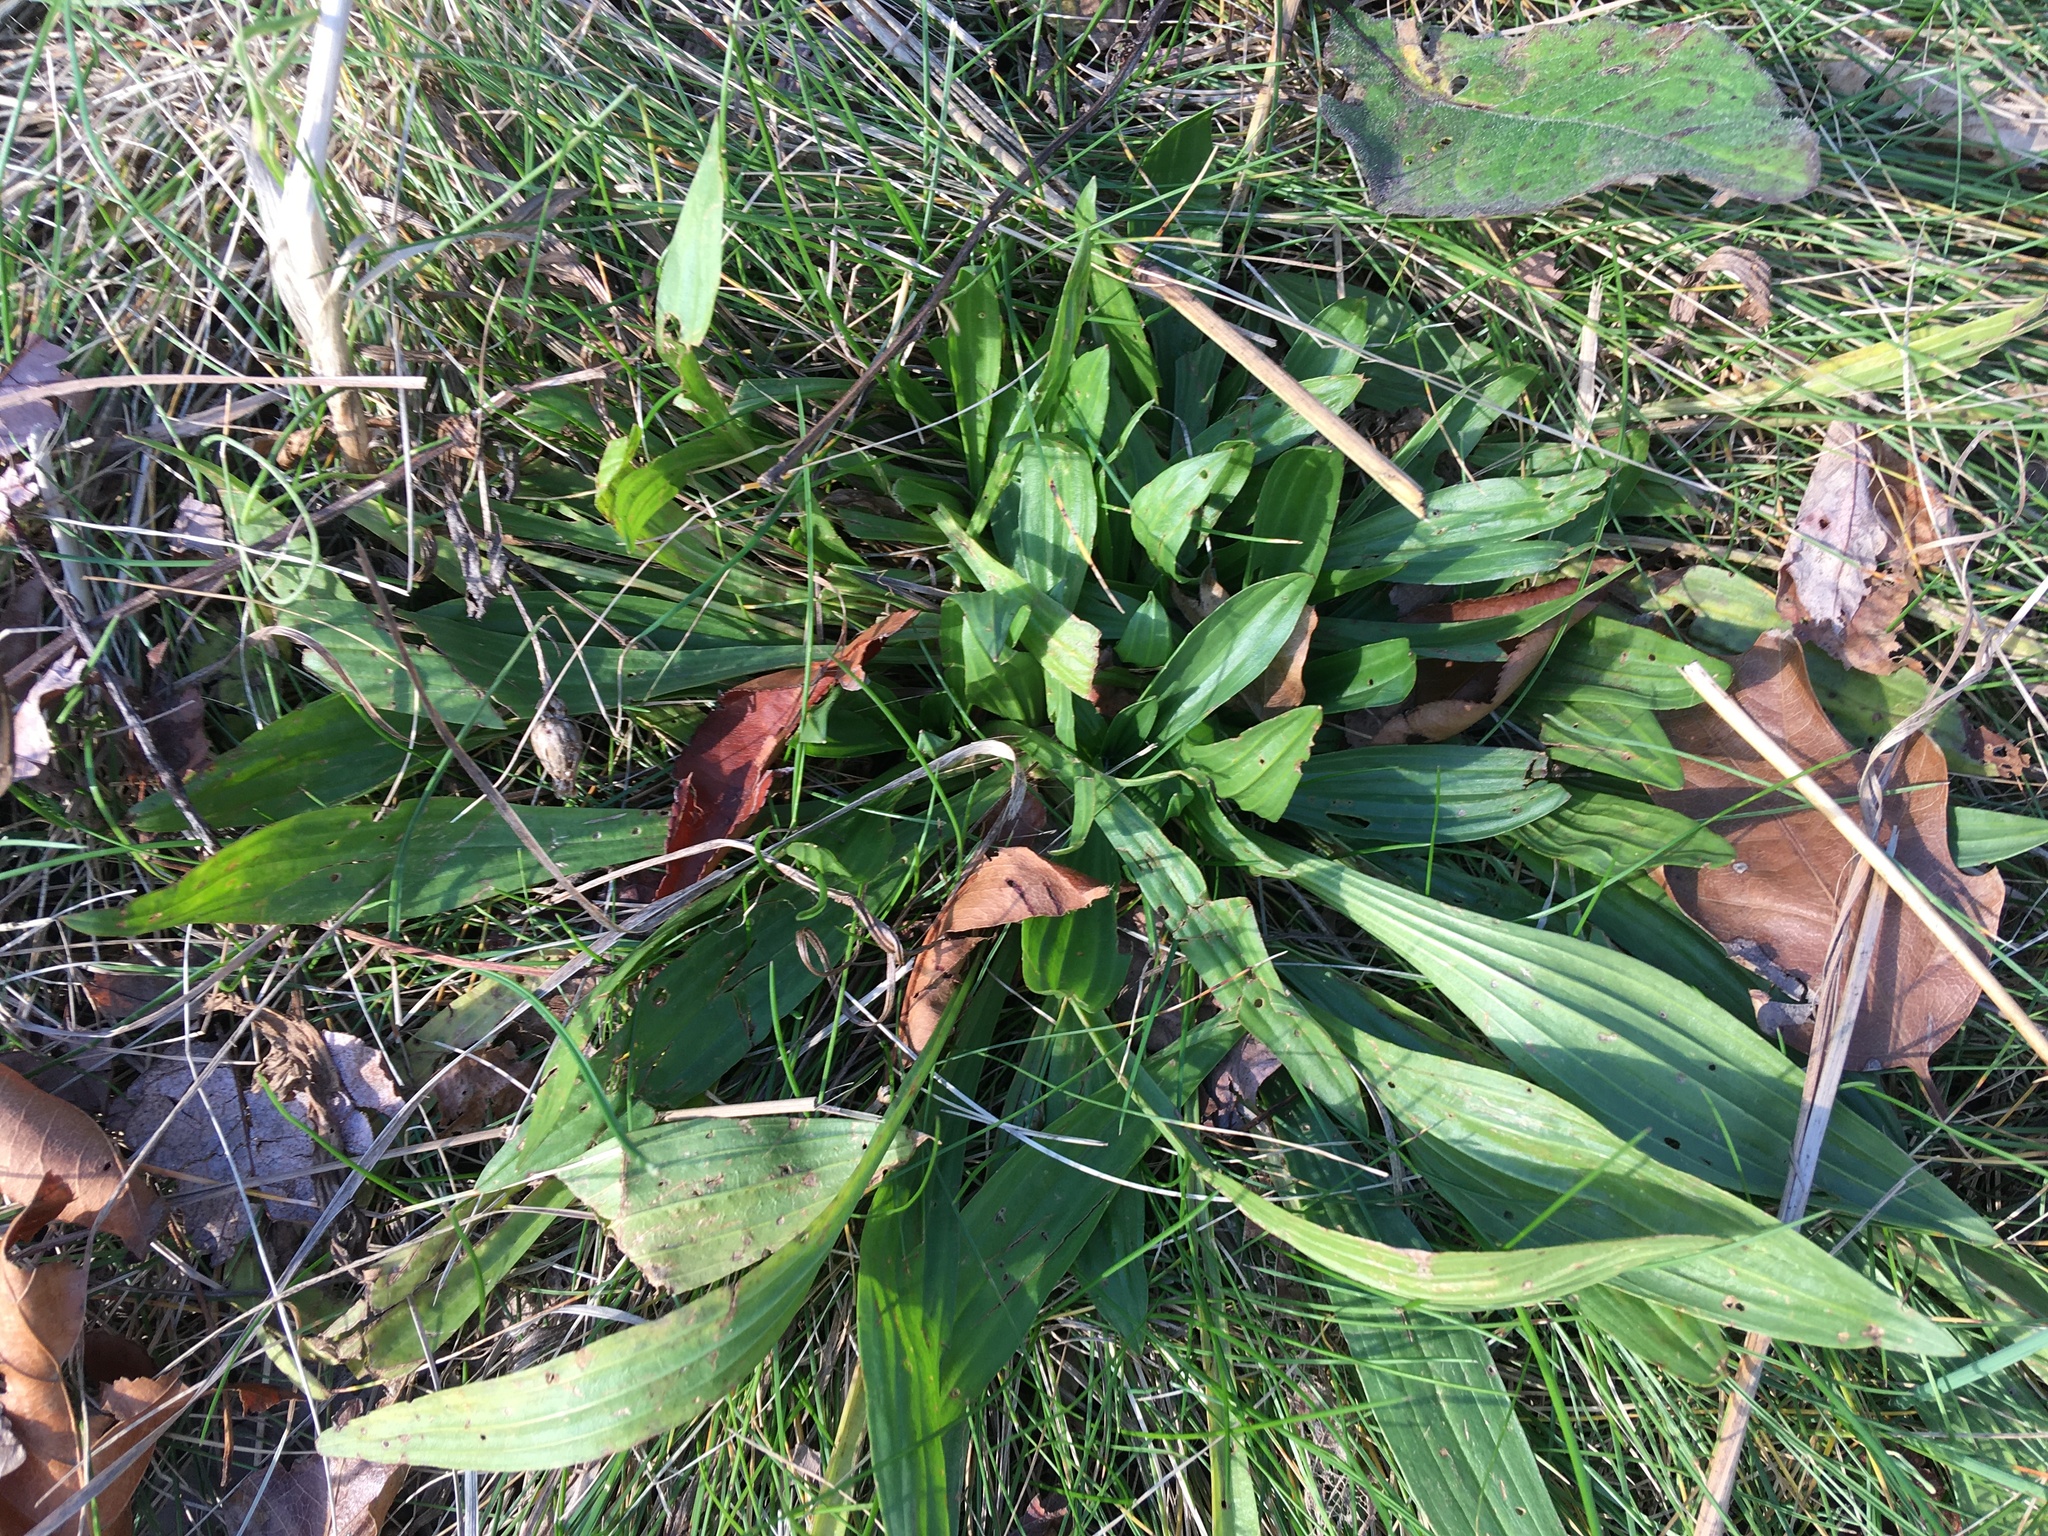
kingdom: Plantae
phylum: Tracheophyta
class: Magnoliopsida
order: Lamiales
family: Plantaginaceae
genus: Plantago
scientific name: Plantago lanceolata
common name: Ribwort plantain
